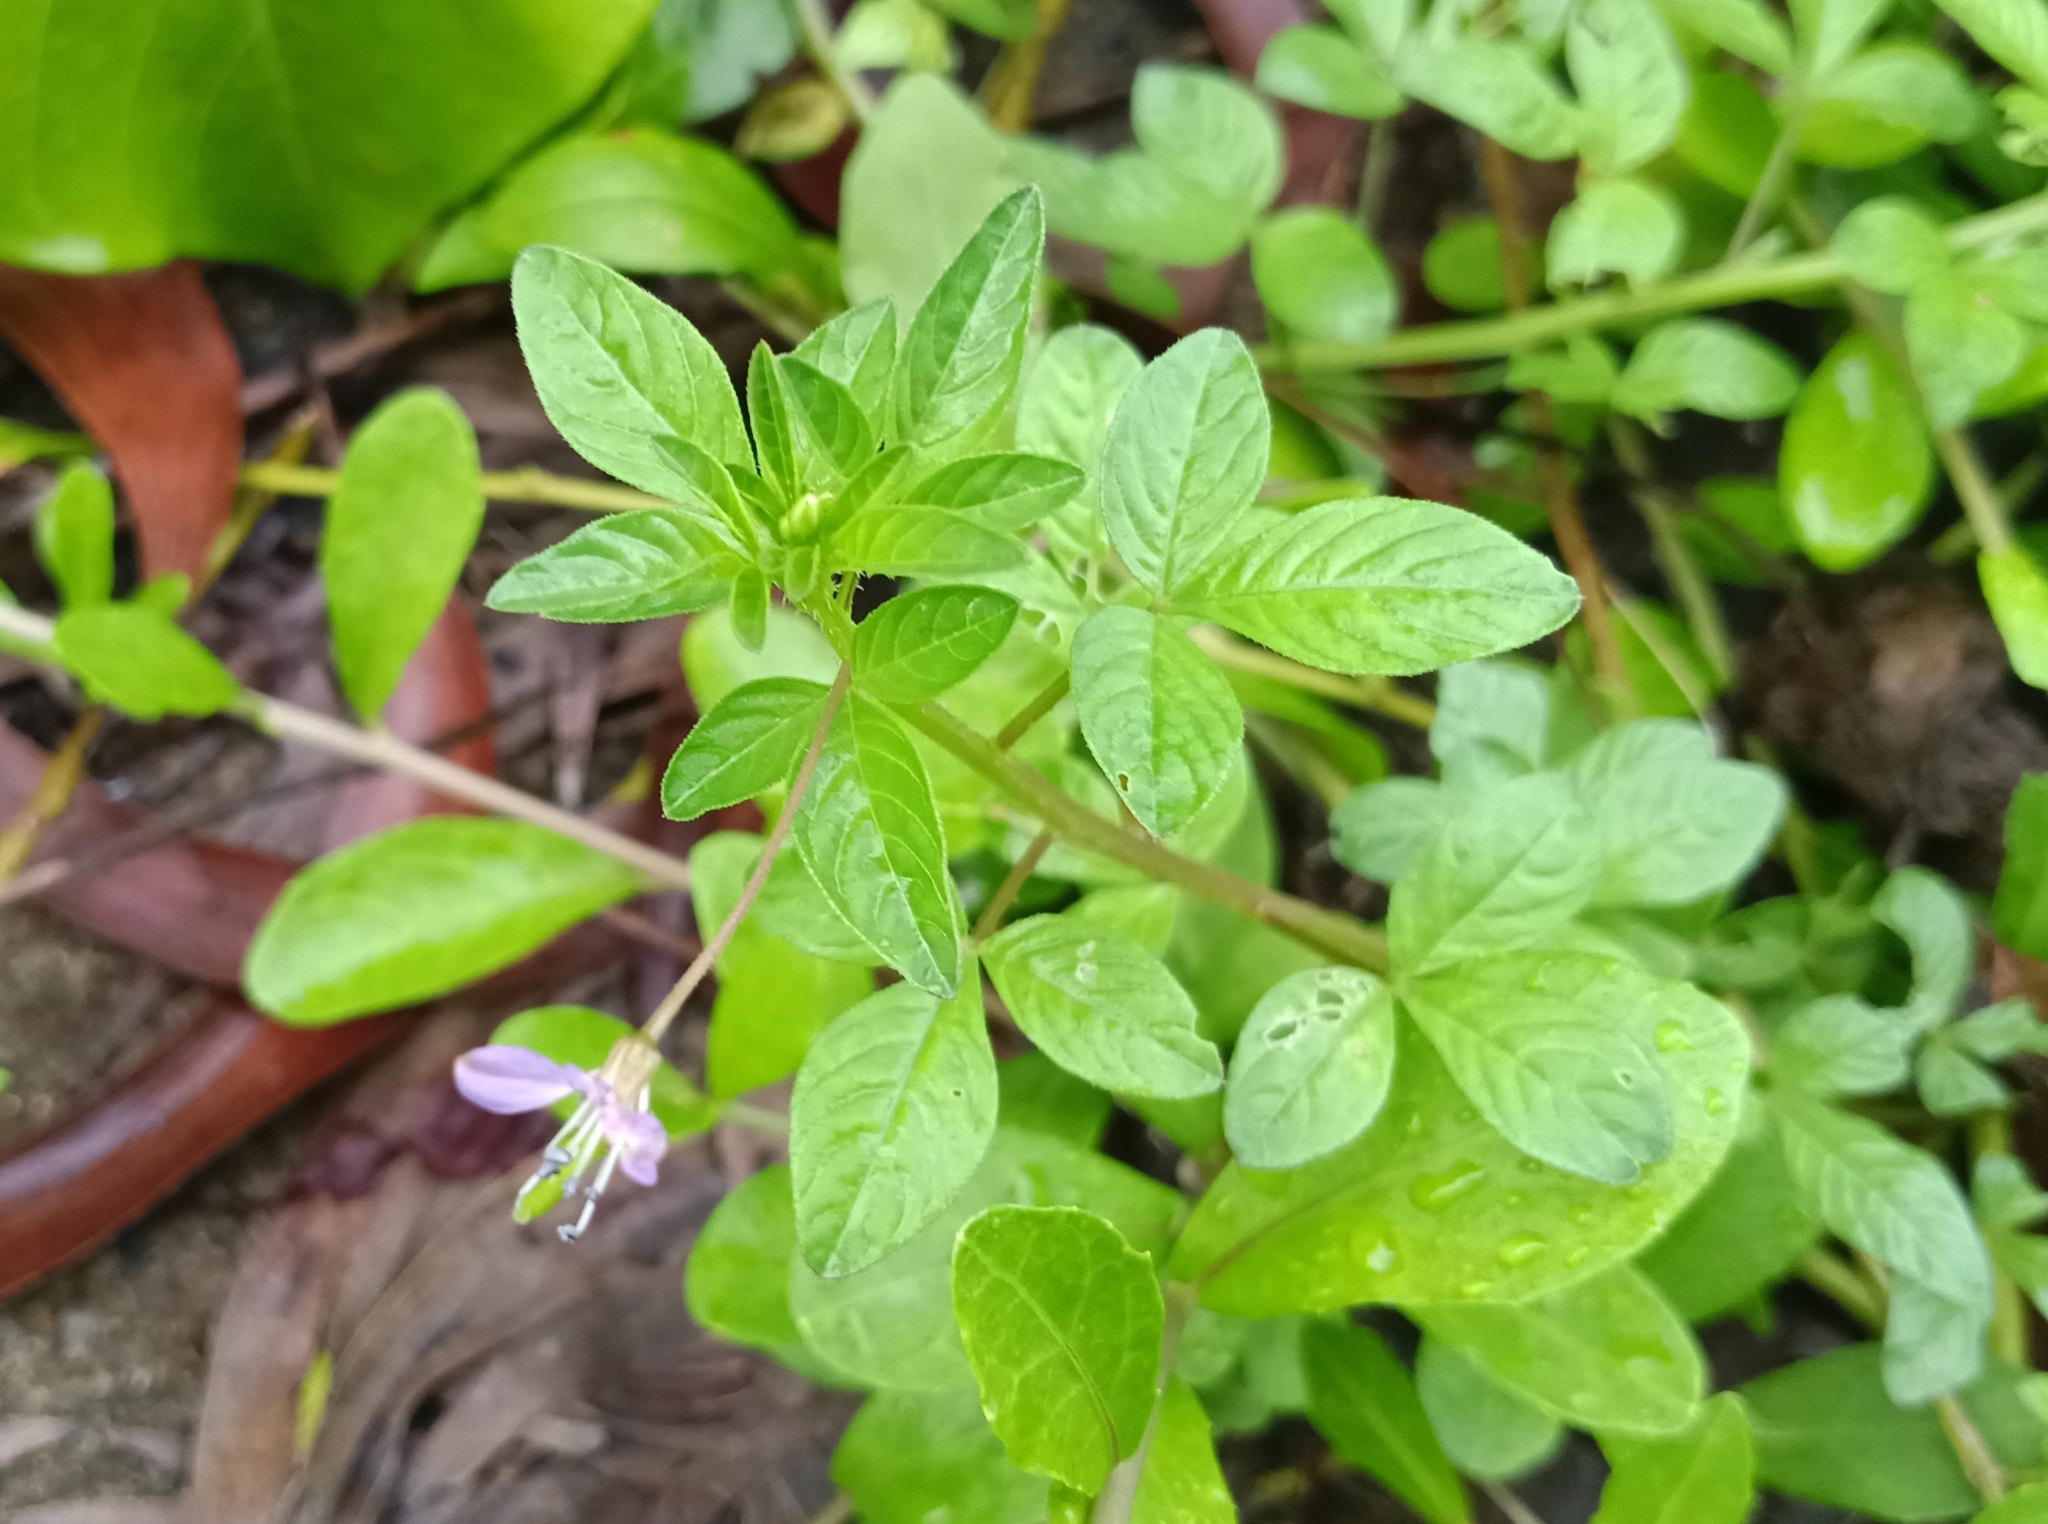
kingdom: Plantae
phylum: Tracheophyta
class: Magnoliopsida
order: Brassicales
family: Cleomaceae
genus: Sieruela
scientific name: Sieruela rutidosperma
